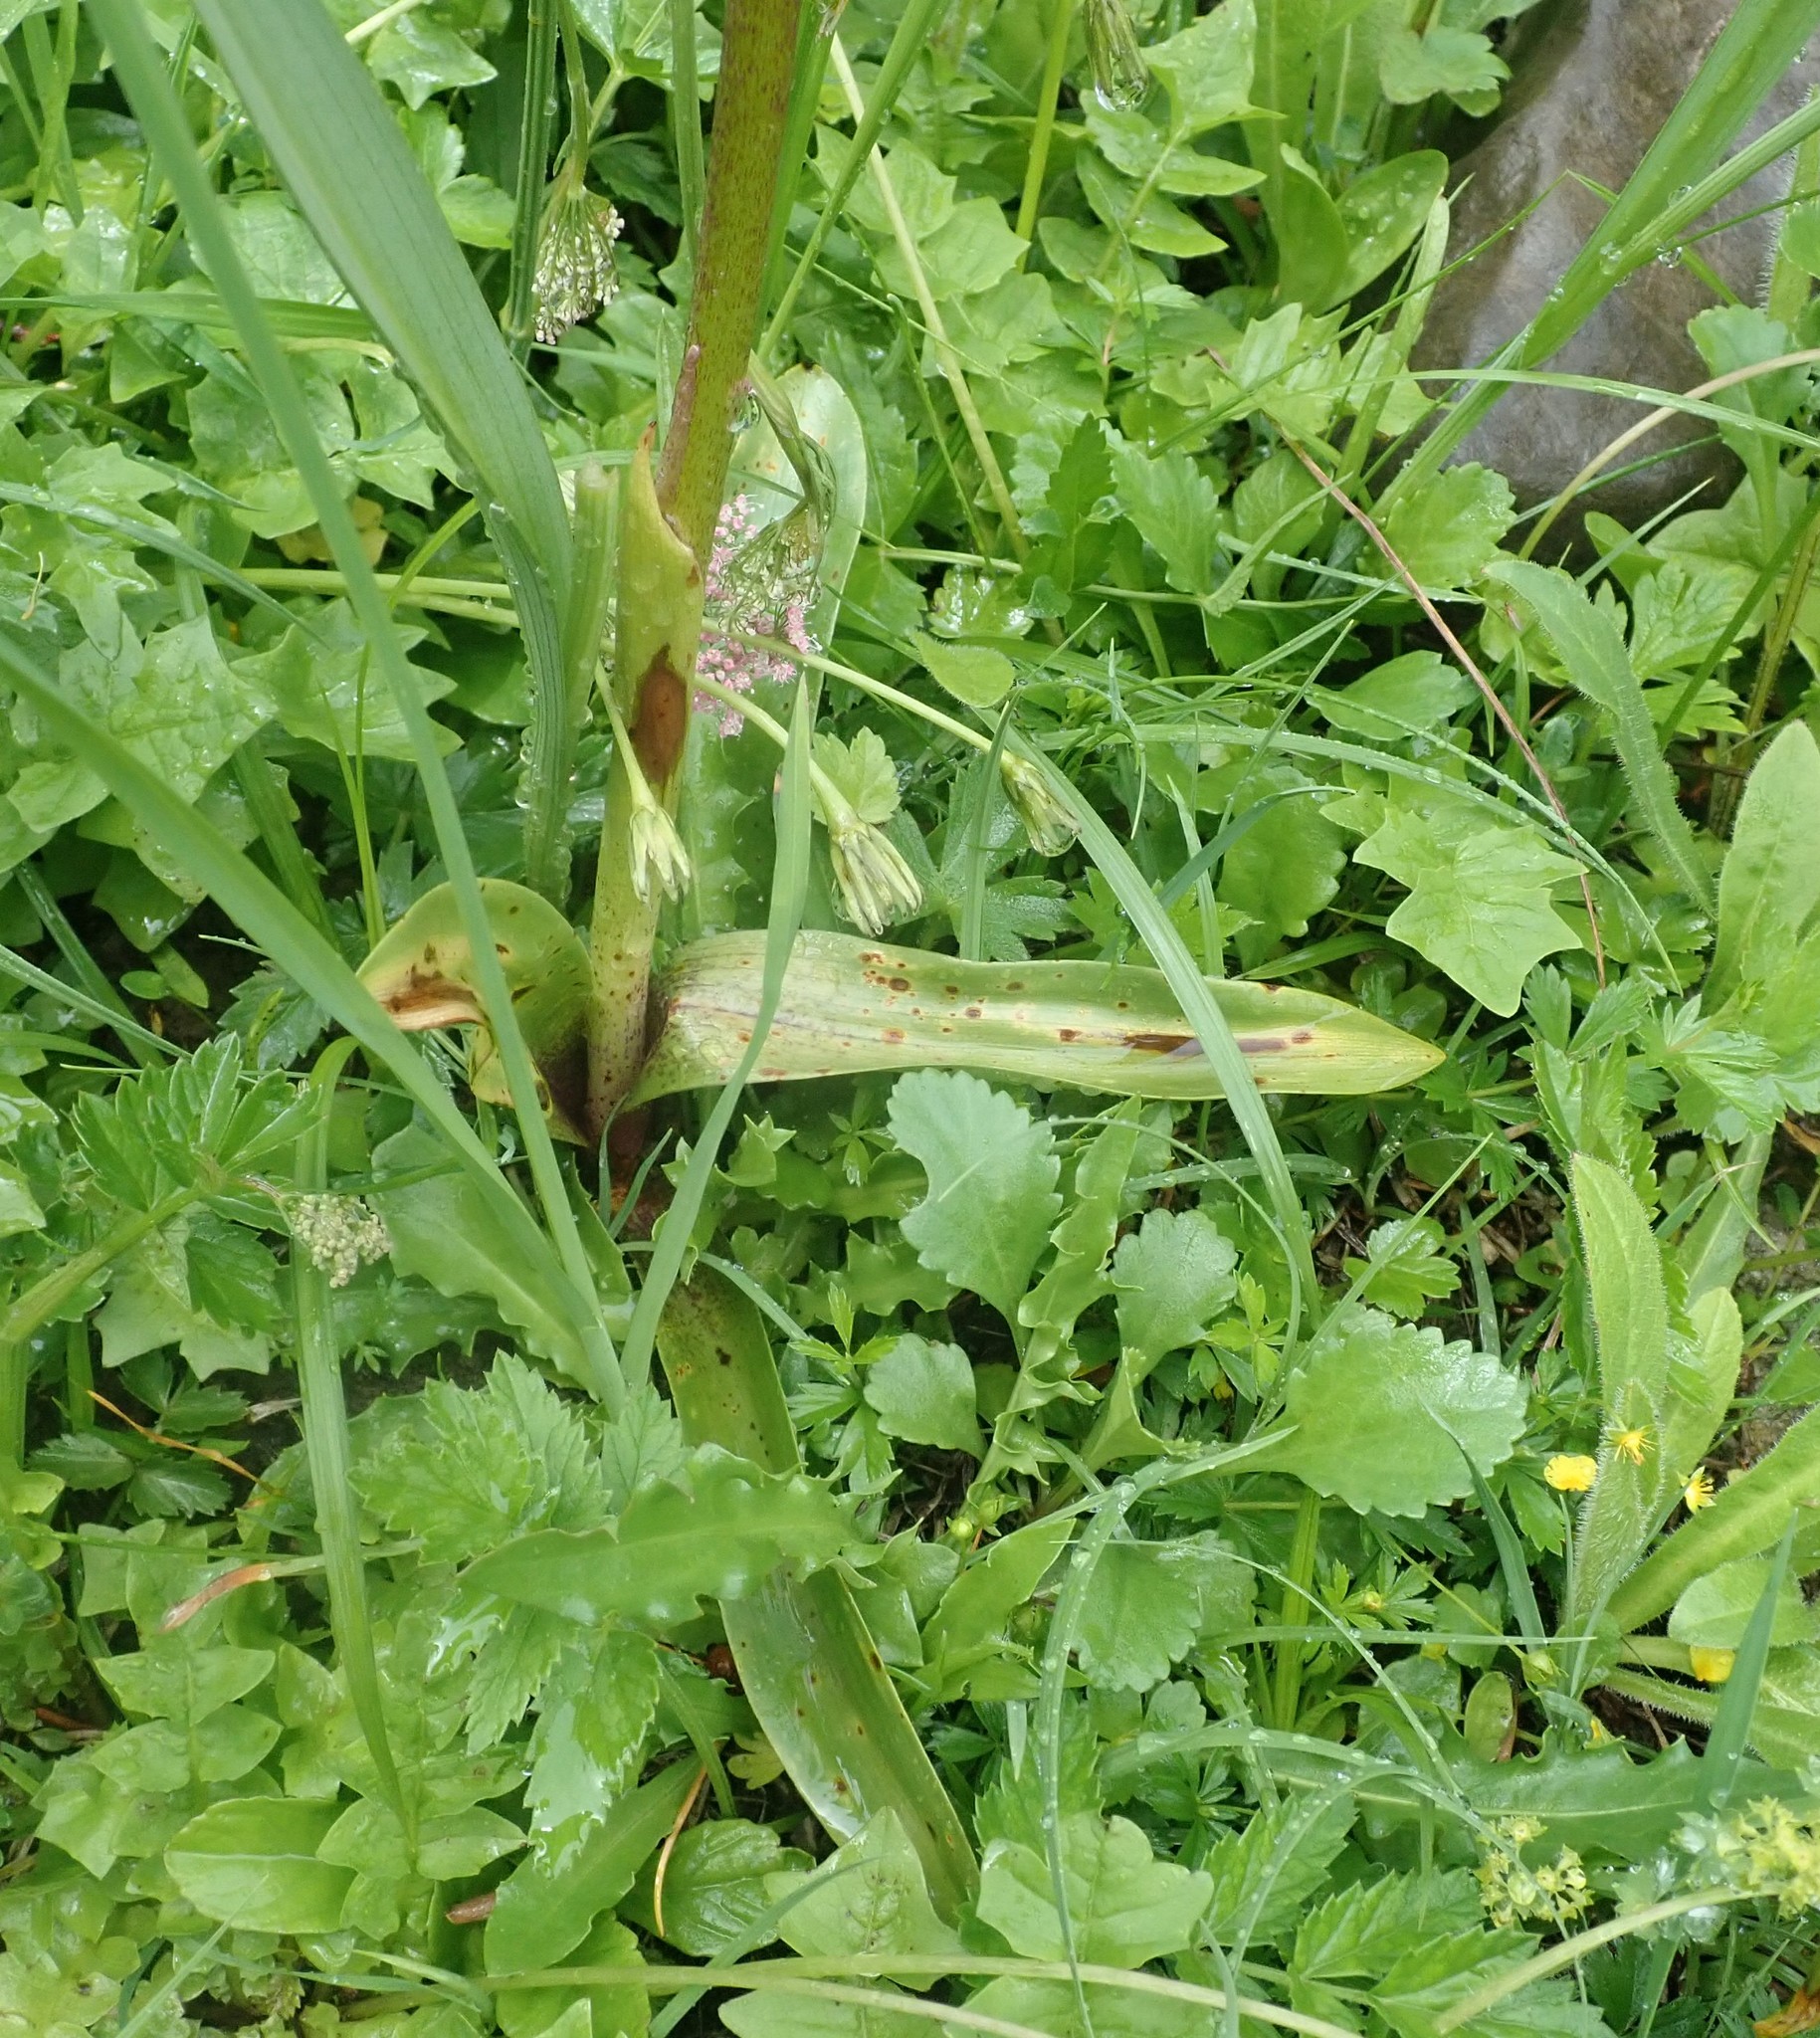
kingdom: Plantae
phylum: Tracheophyta
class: Liliopsida
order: Asparagales
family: Orchidaceae
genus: Orchis
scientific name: Orchis mascula
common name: Early-purple orchid
